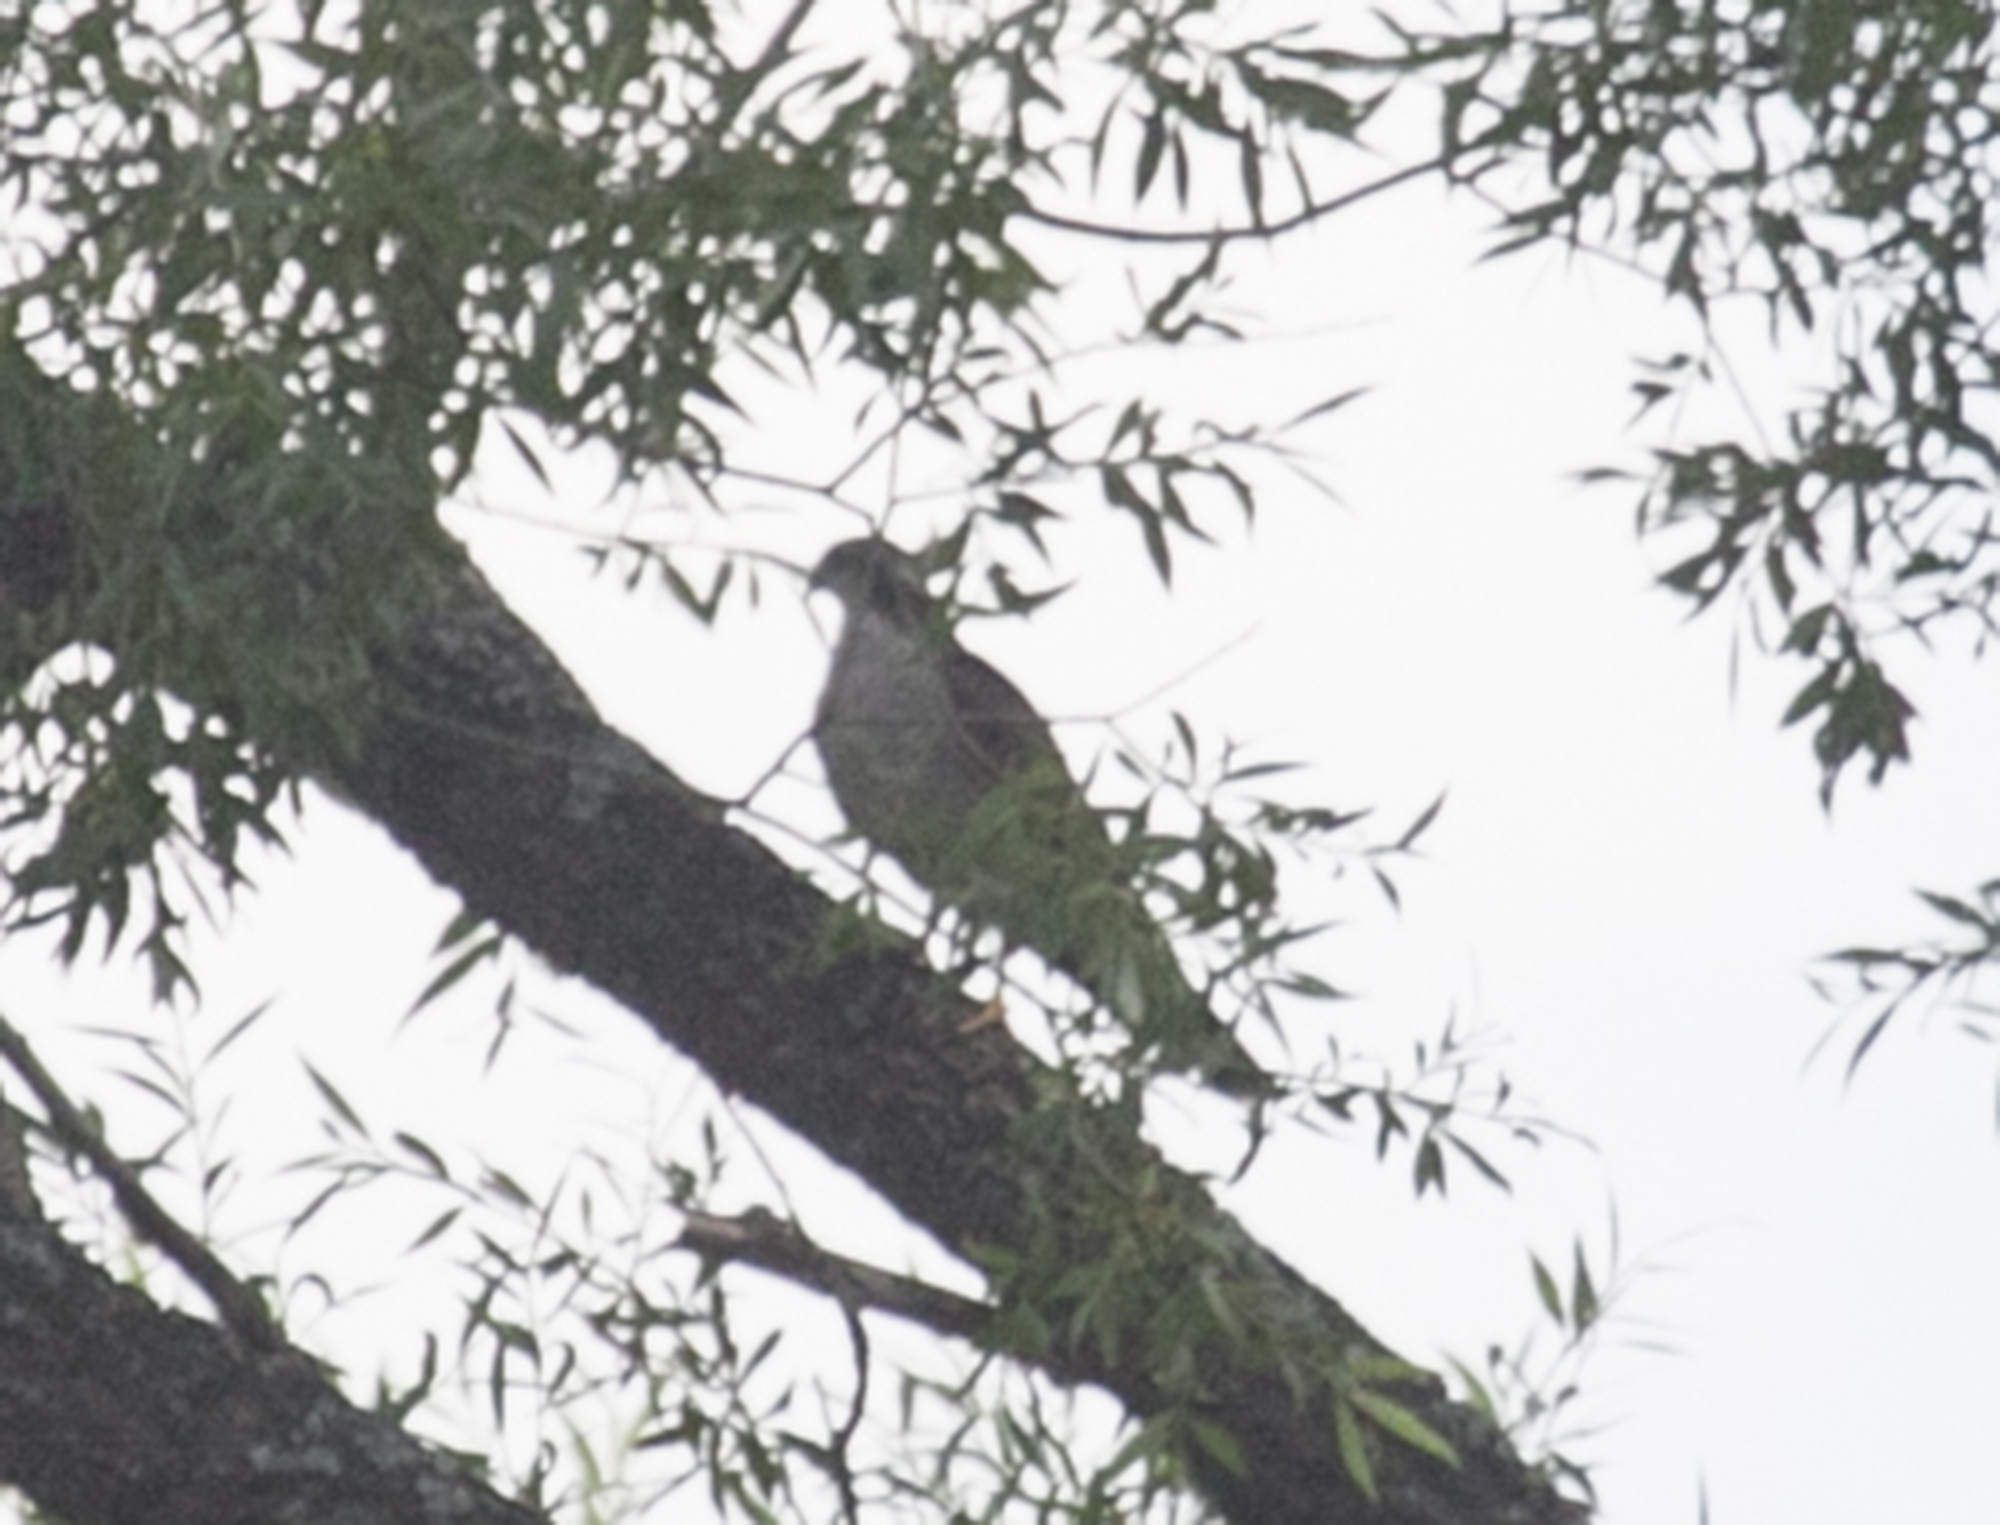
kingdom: Animalia
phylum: Chordata
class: Aves
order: Accipitriformes
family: Accipitridae
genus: Accipiter
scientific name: Accipiter gentilis
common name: Northern goshawk
